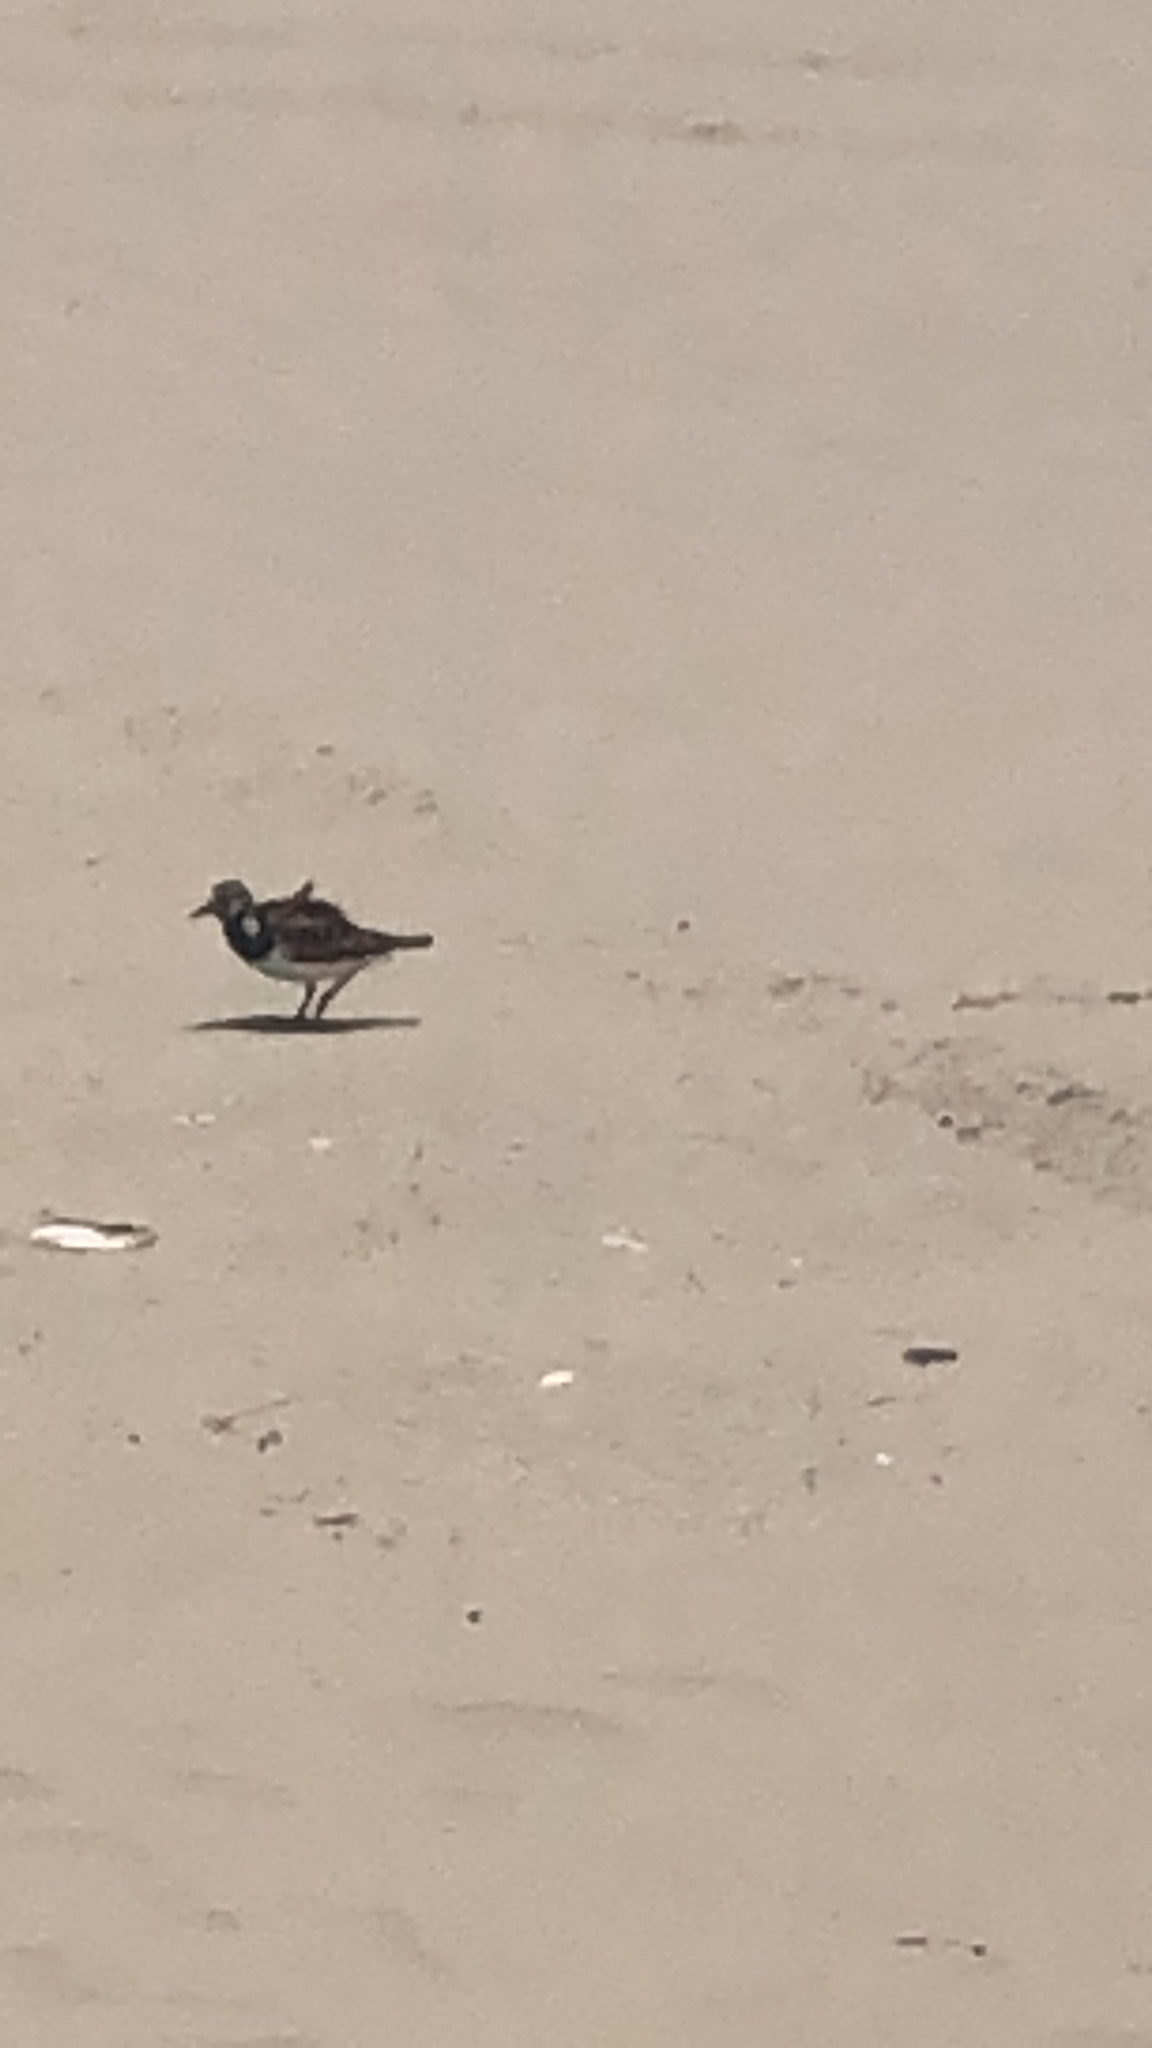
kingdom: Animalia
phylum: Chordata
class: Aves
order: Charadriiformes
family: Scolopacidae
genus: Arenaria
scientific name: Arenaria interpres
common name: Ruddy turnstone
